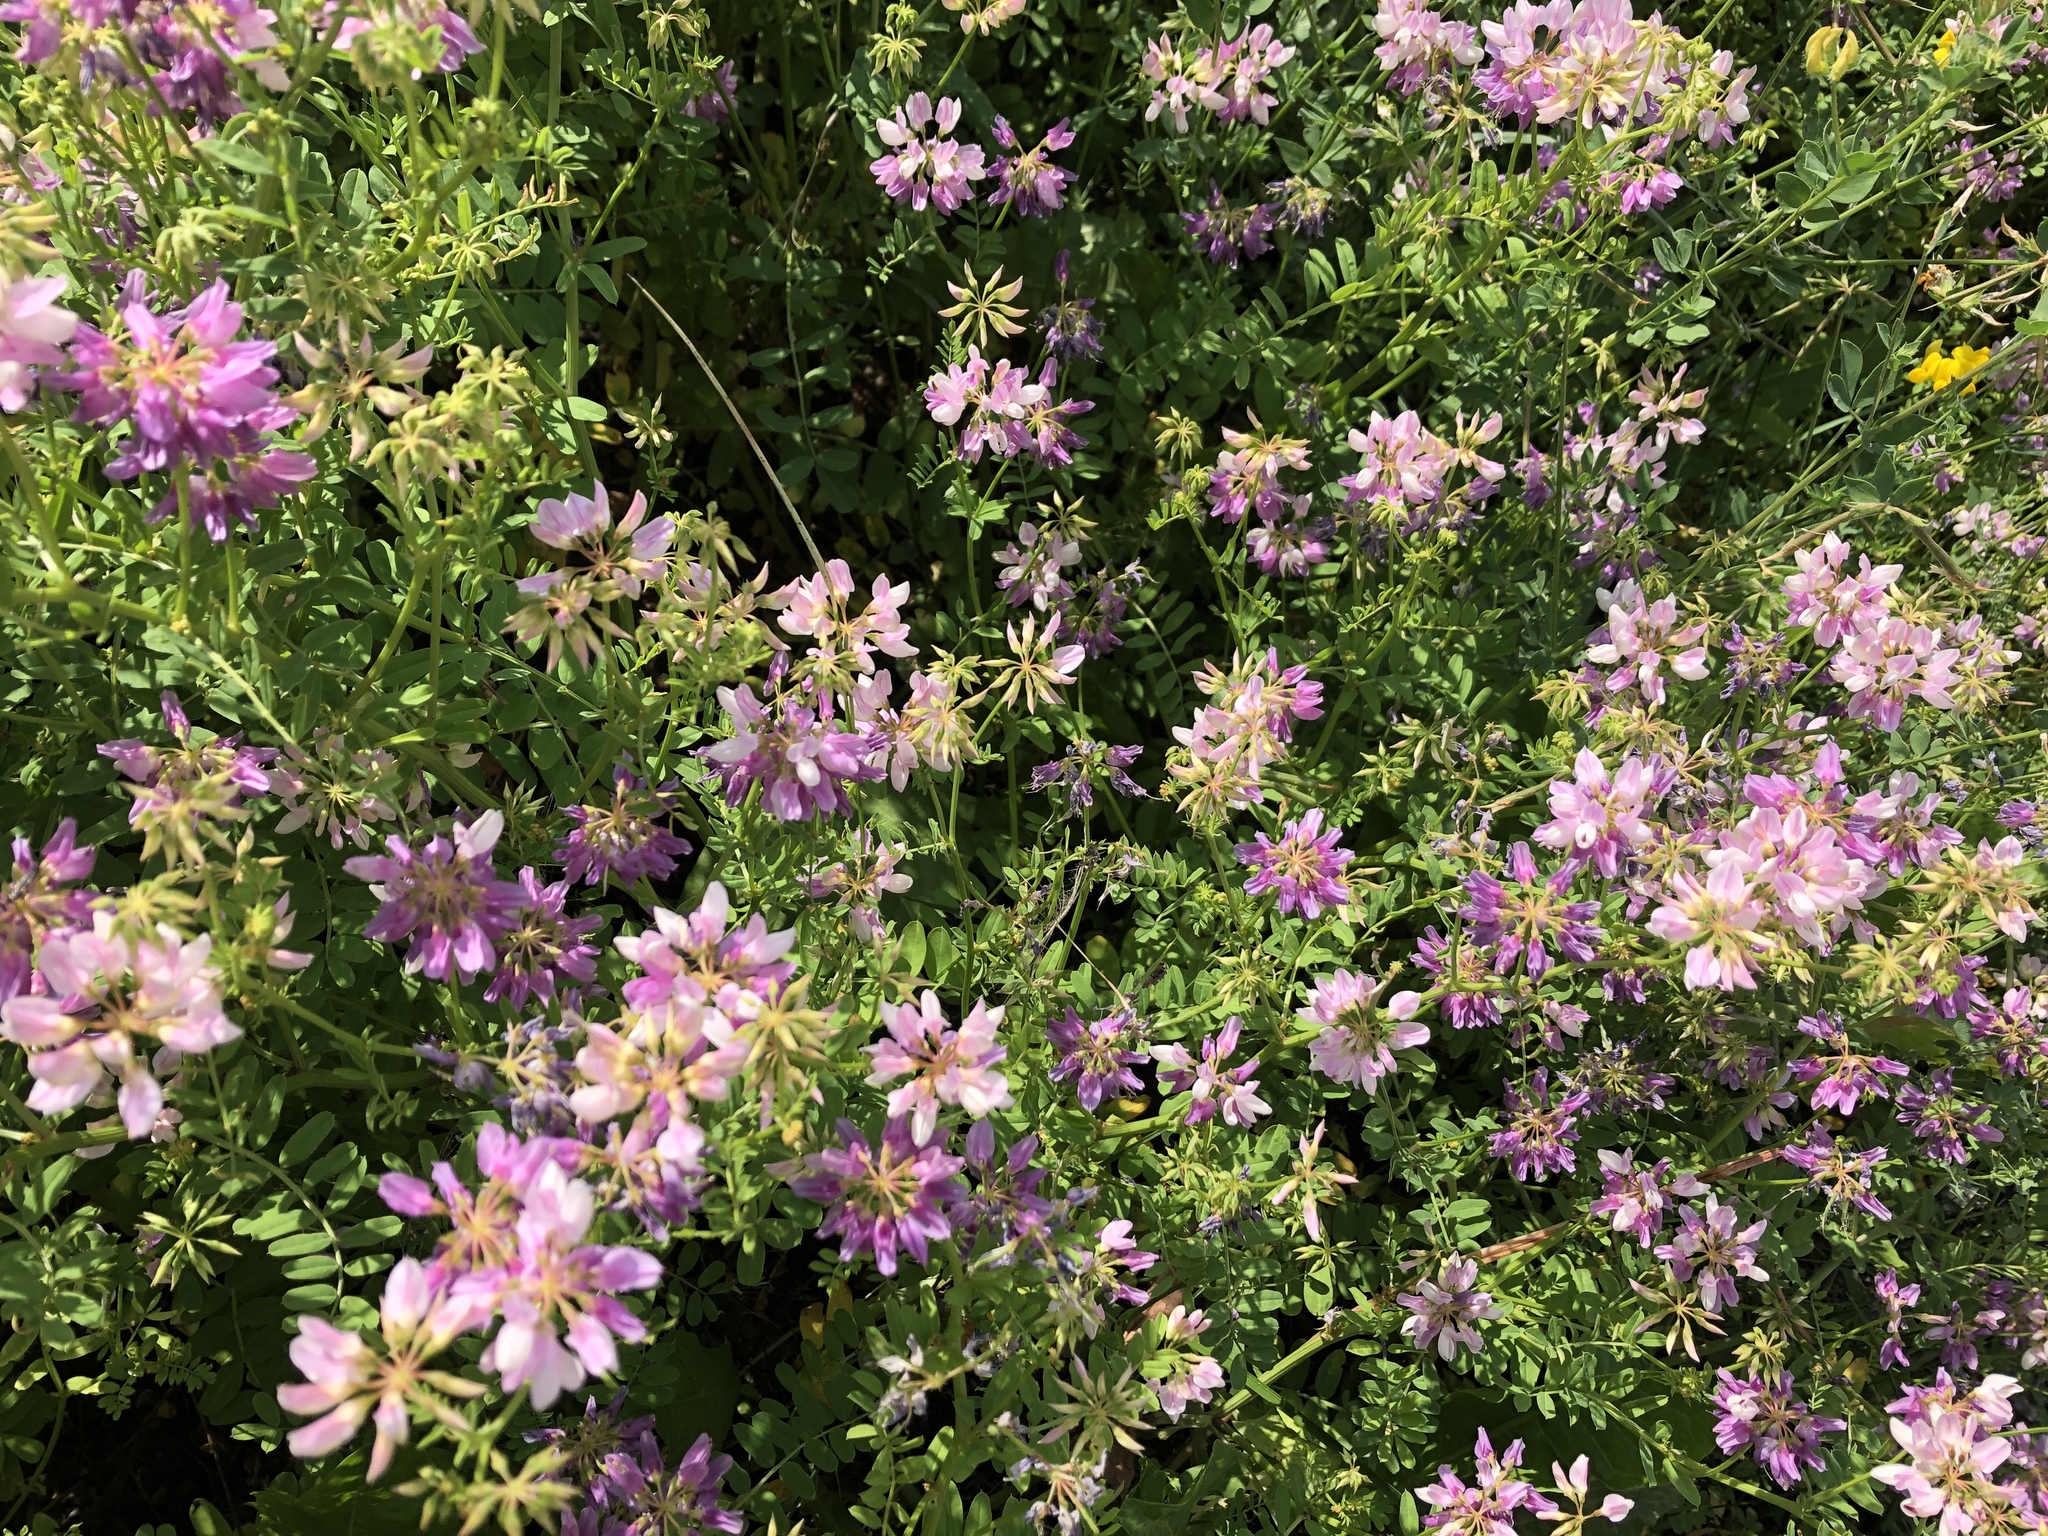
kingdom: Plantae
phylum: Tracheophyta
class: Magnoliopsida
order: Fabales
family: Fabaceae
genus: Coronilla
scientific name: Coronilla varia
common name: Crownvetch
